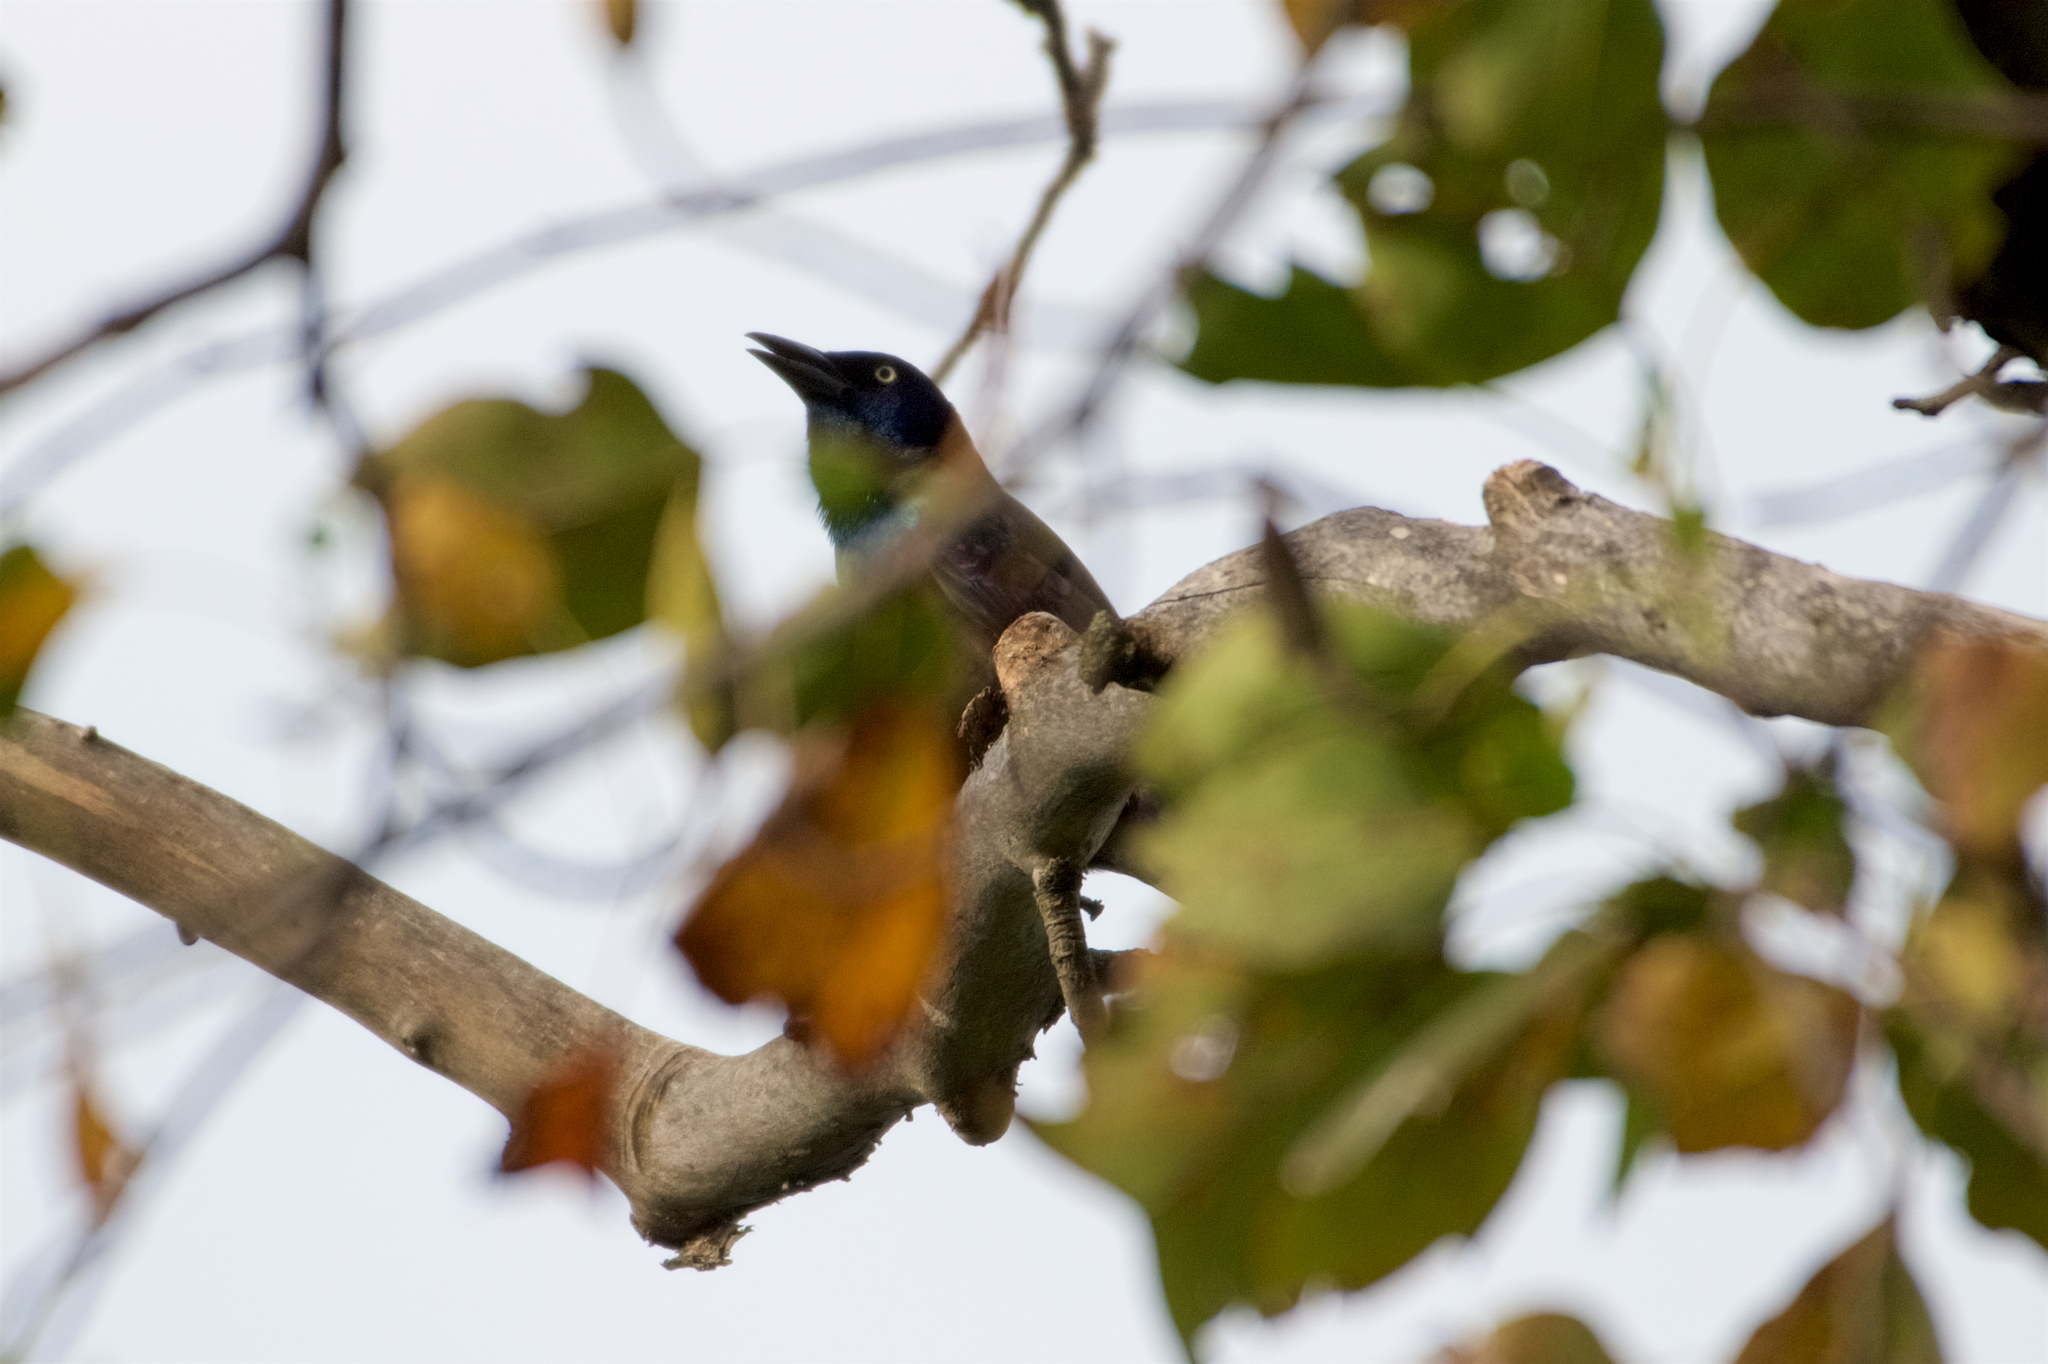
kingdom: Animalia
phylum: Chordata
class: Aves
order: Passeriformes
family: Icteridae
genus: Quiscalus
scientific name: Quiscalus quiscula
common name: Common grackle
